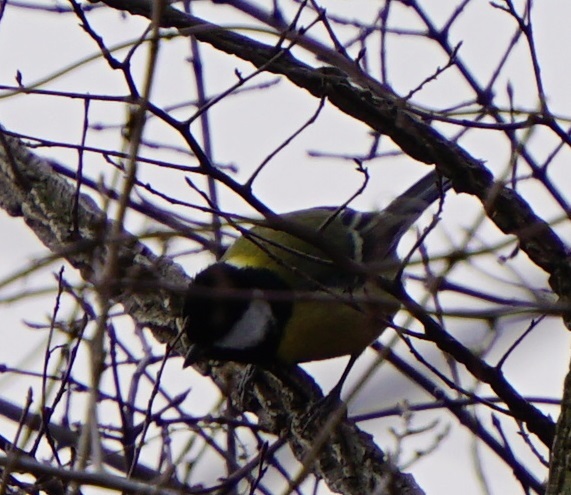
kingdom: Animalia
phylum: Chordata
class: Aves
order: Passeriformes
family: Paridae
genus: Parus
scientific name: Parus major
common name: Great tit
